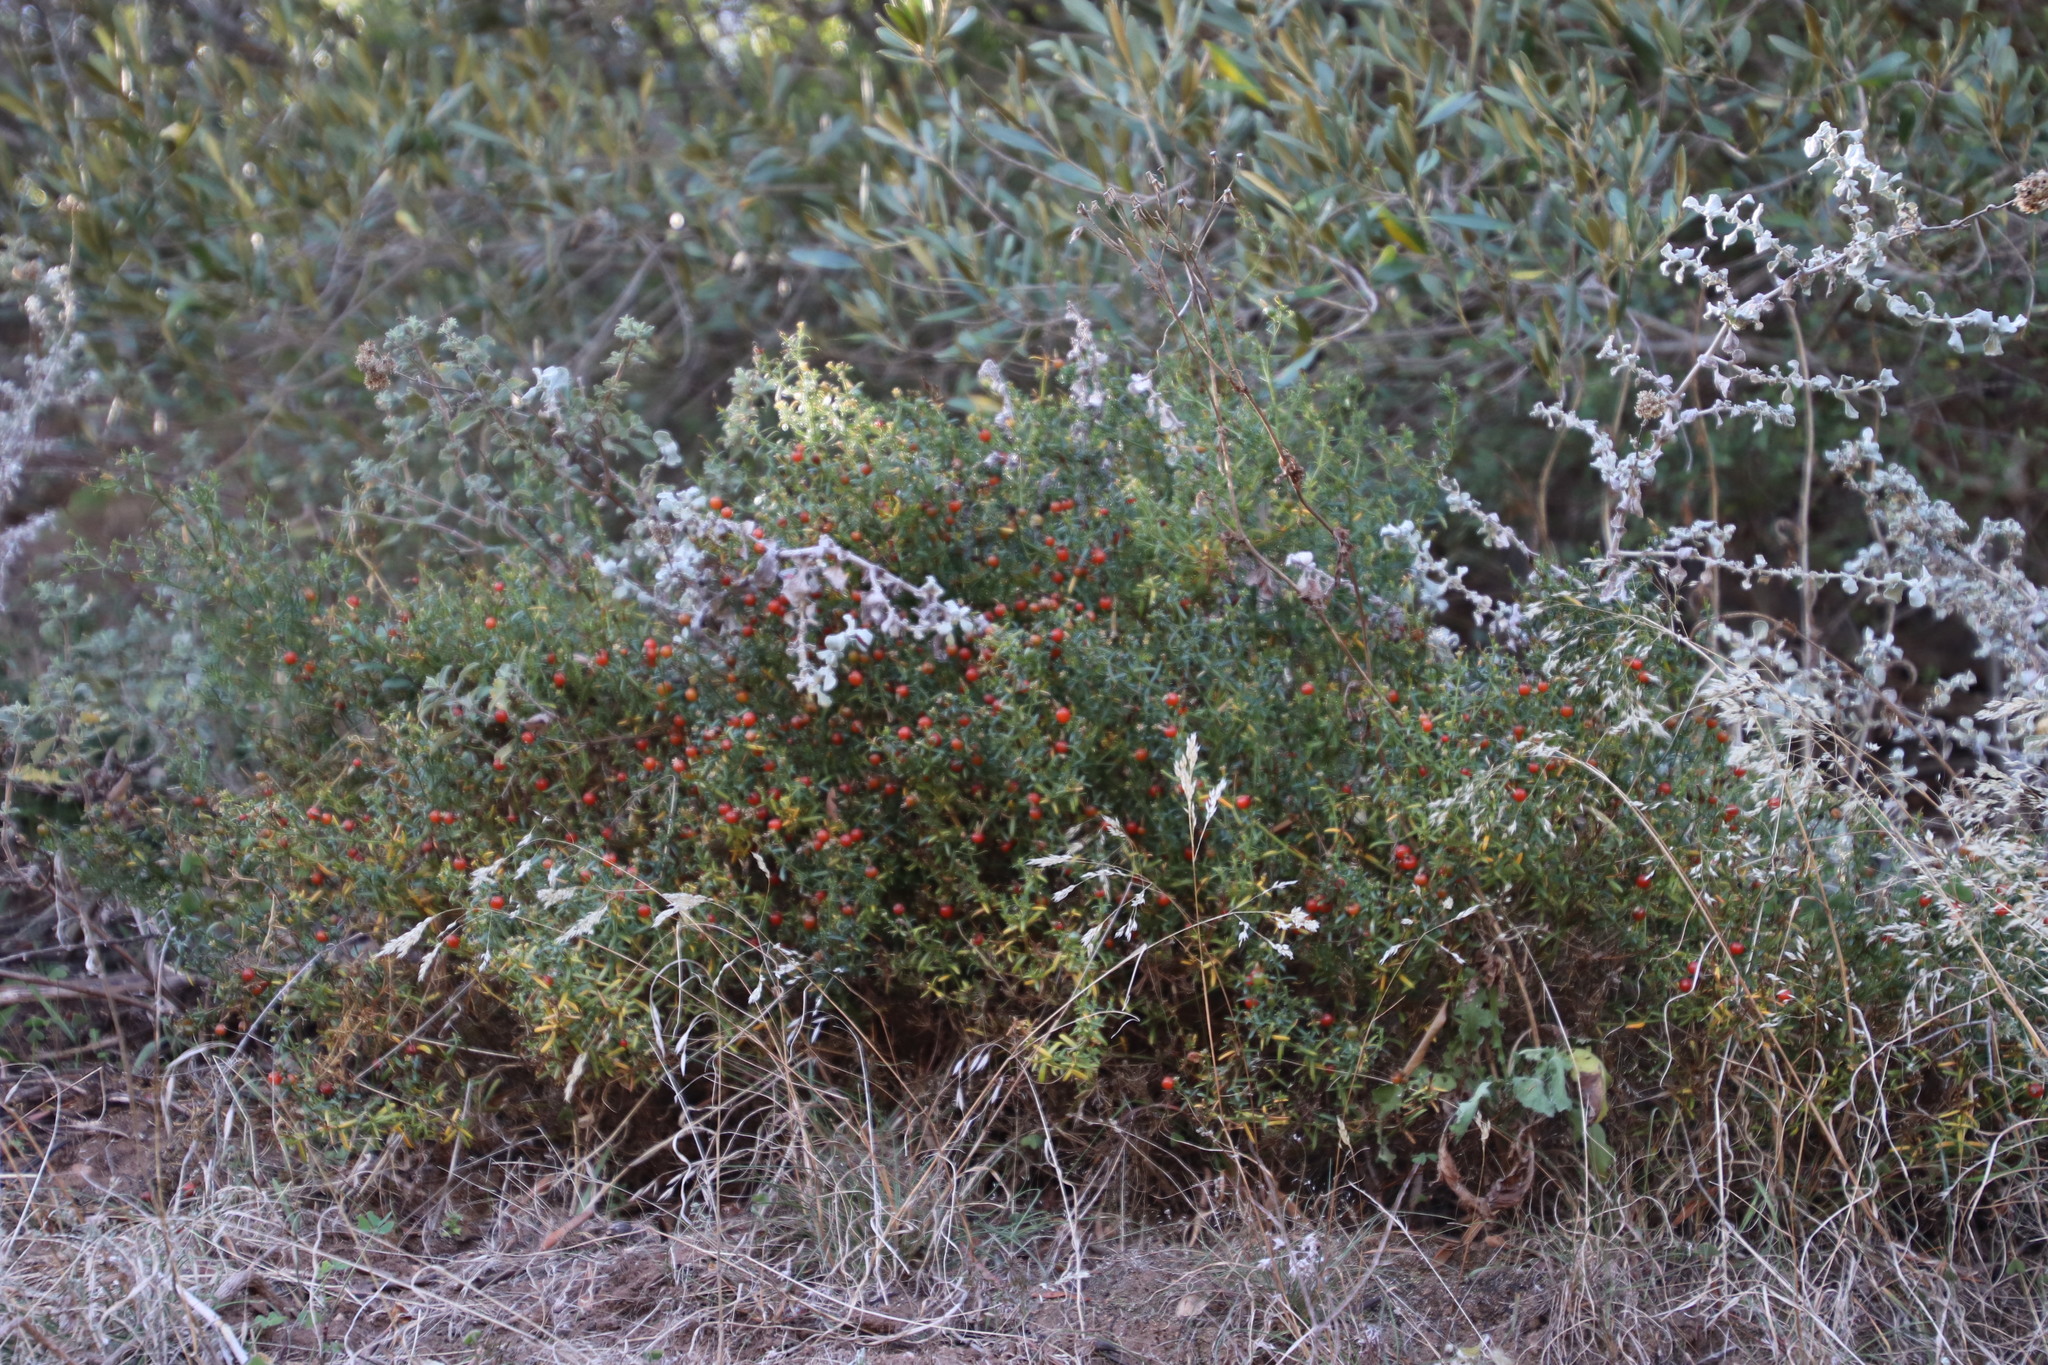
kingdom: Plantae
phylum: Tracheophyta
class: Magnoliopsida
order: Gentianales
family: Gentianaceae
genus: Chironia
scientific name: Chironia baccifera
